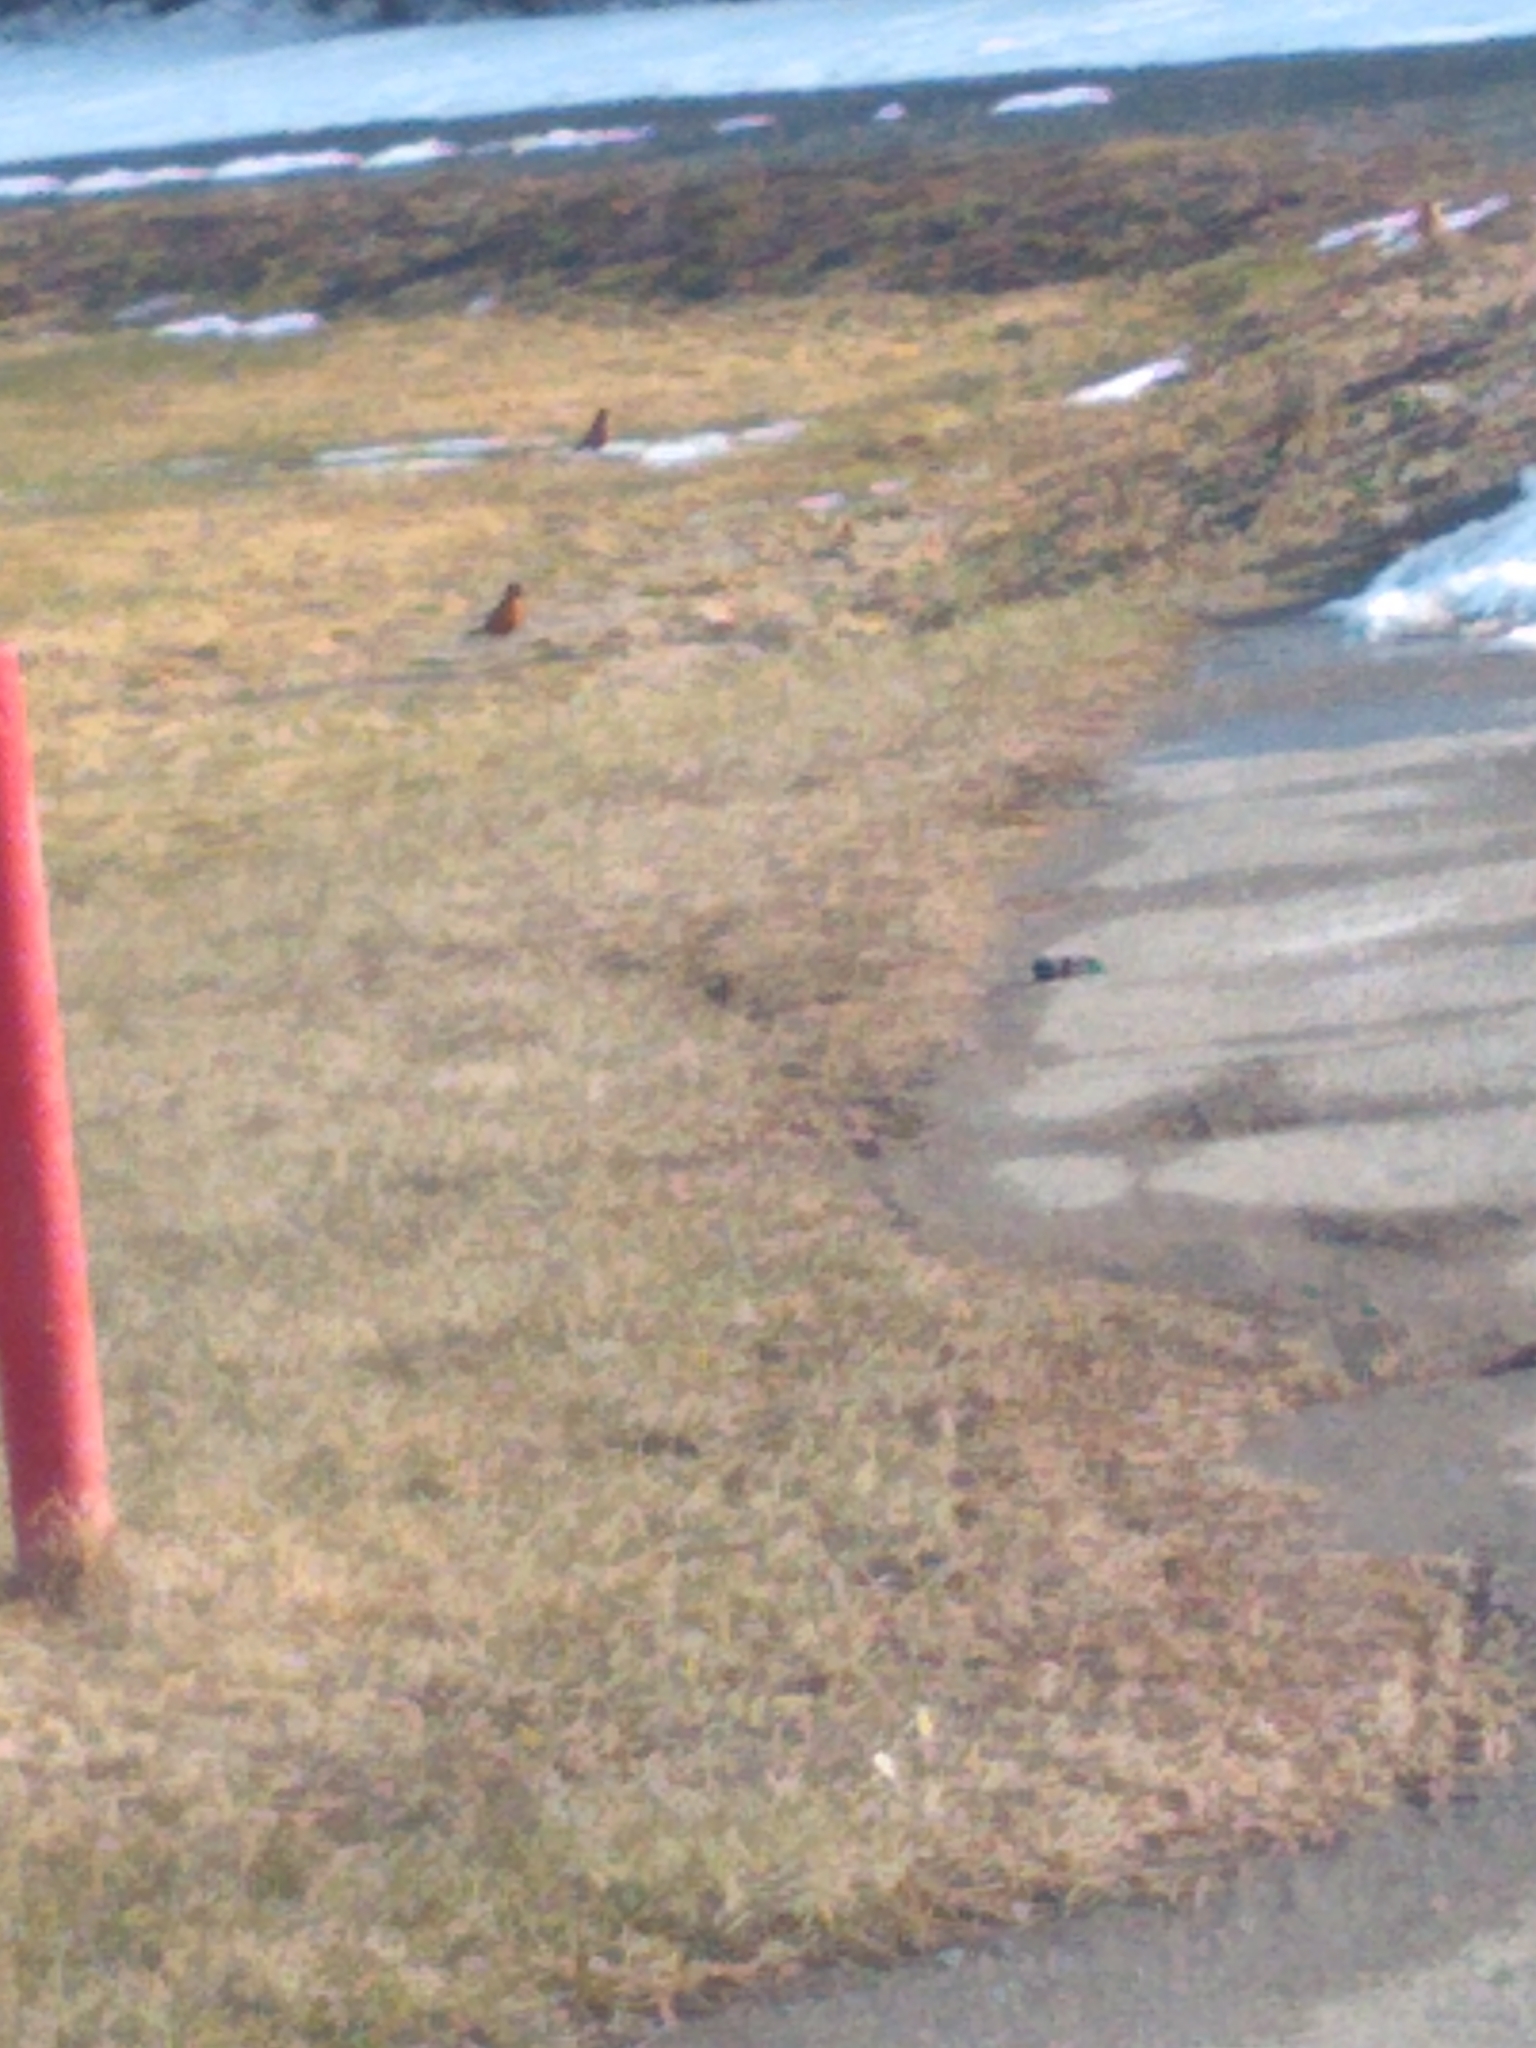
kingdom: Animalia
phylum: Chordata
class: Aves
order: Passeriformes
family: Turdidae
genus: Turdus
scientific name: Turdus migratorius
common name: American robin
